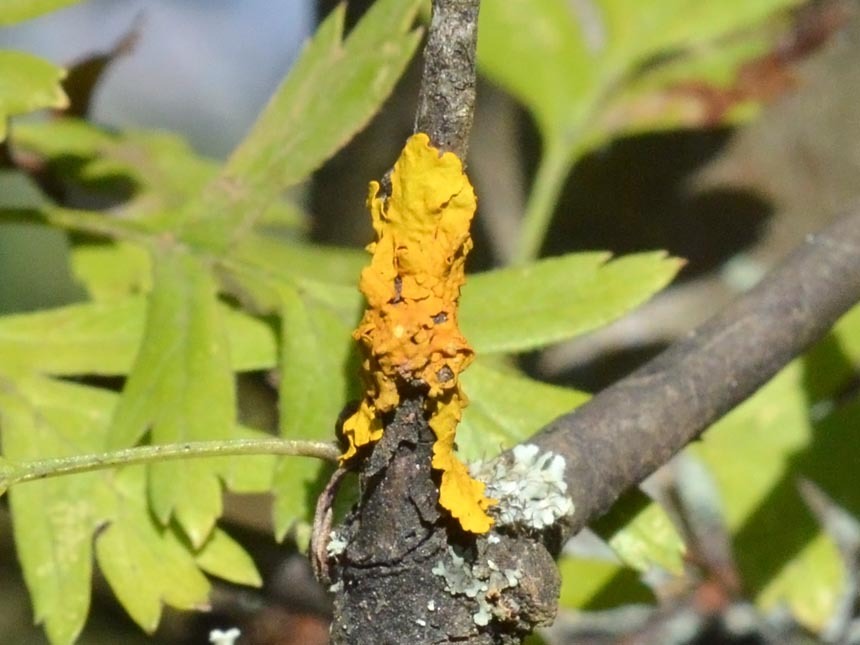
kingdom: Fungi
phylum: Ascomycota
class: Lecanoromycetes
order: Teloschistales
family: Teloschistaceae
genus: Xanthoria
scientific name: Xanthoria parietina
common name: Common orange lichen
